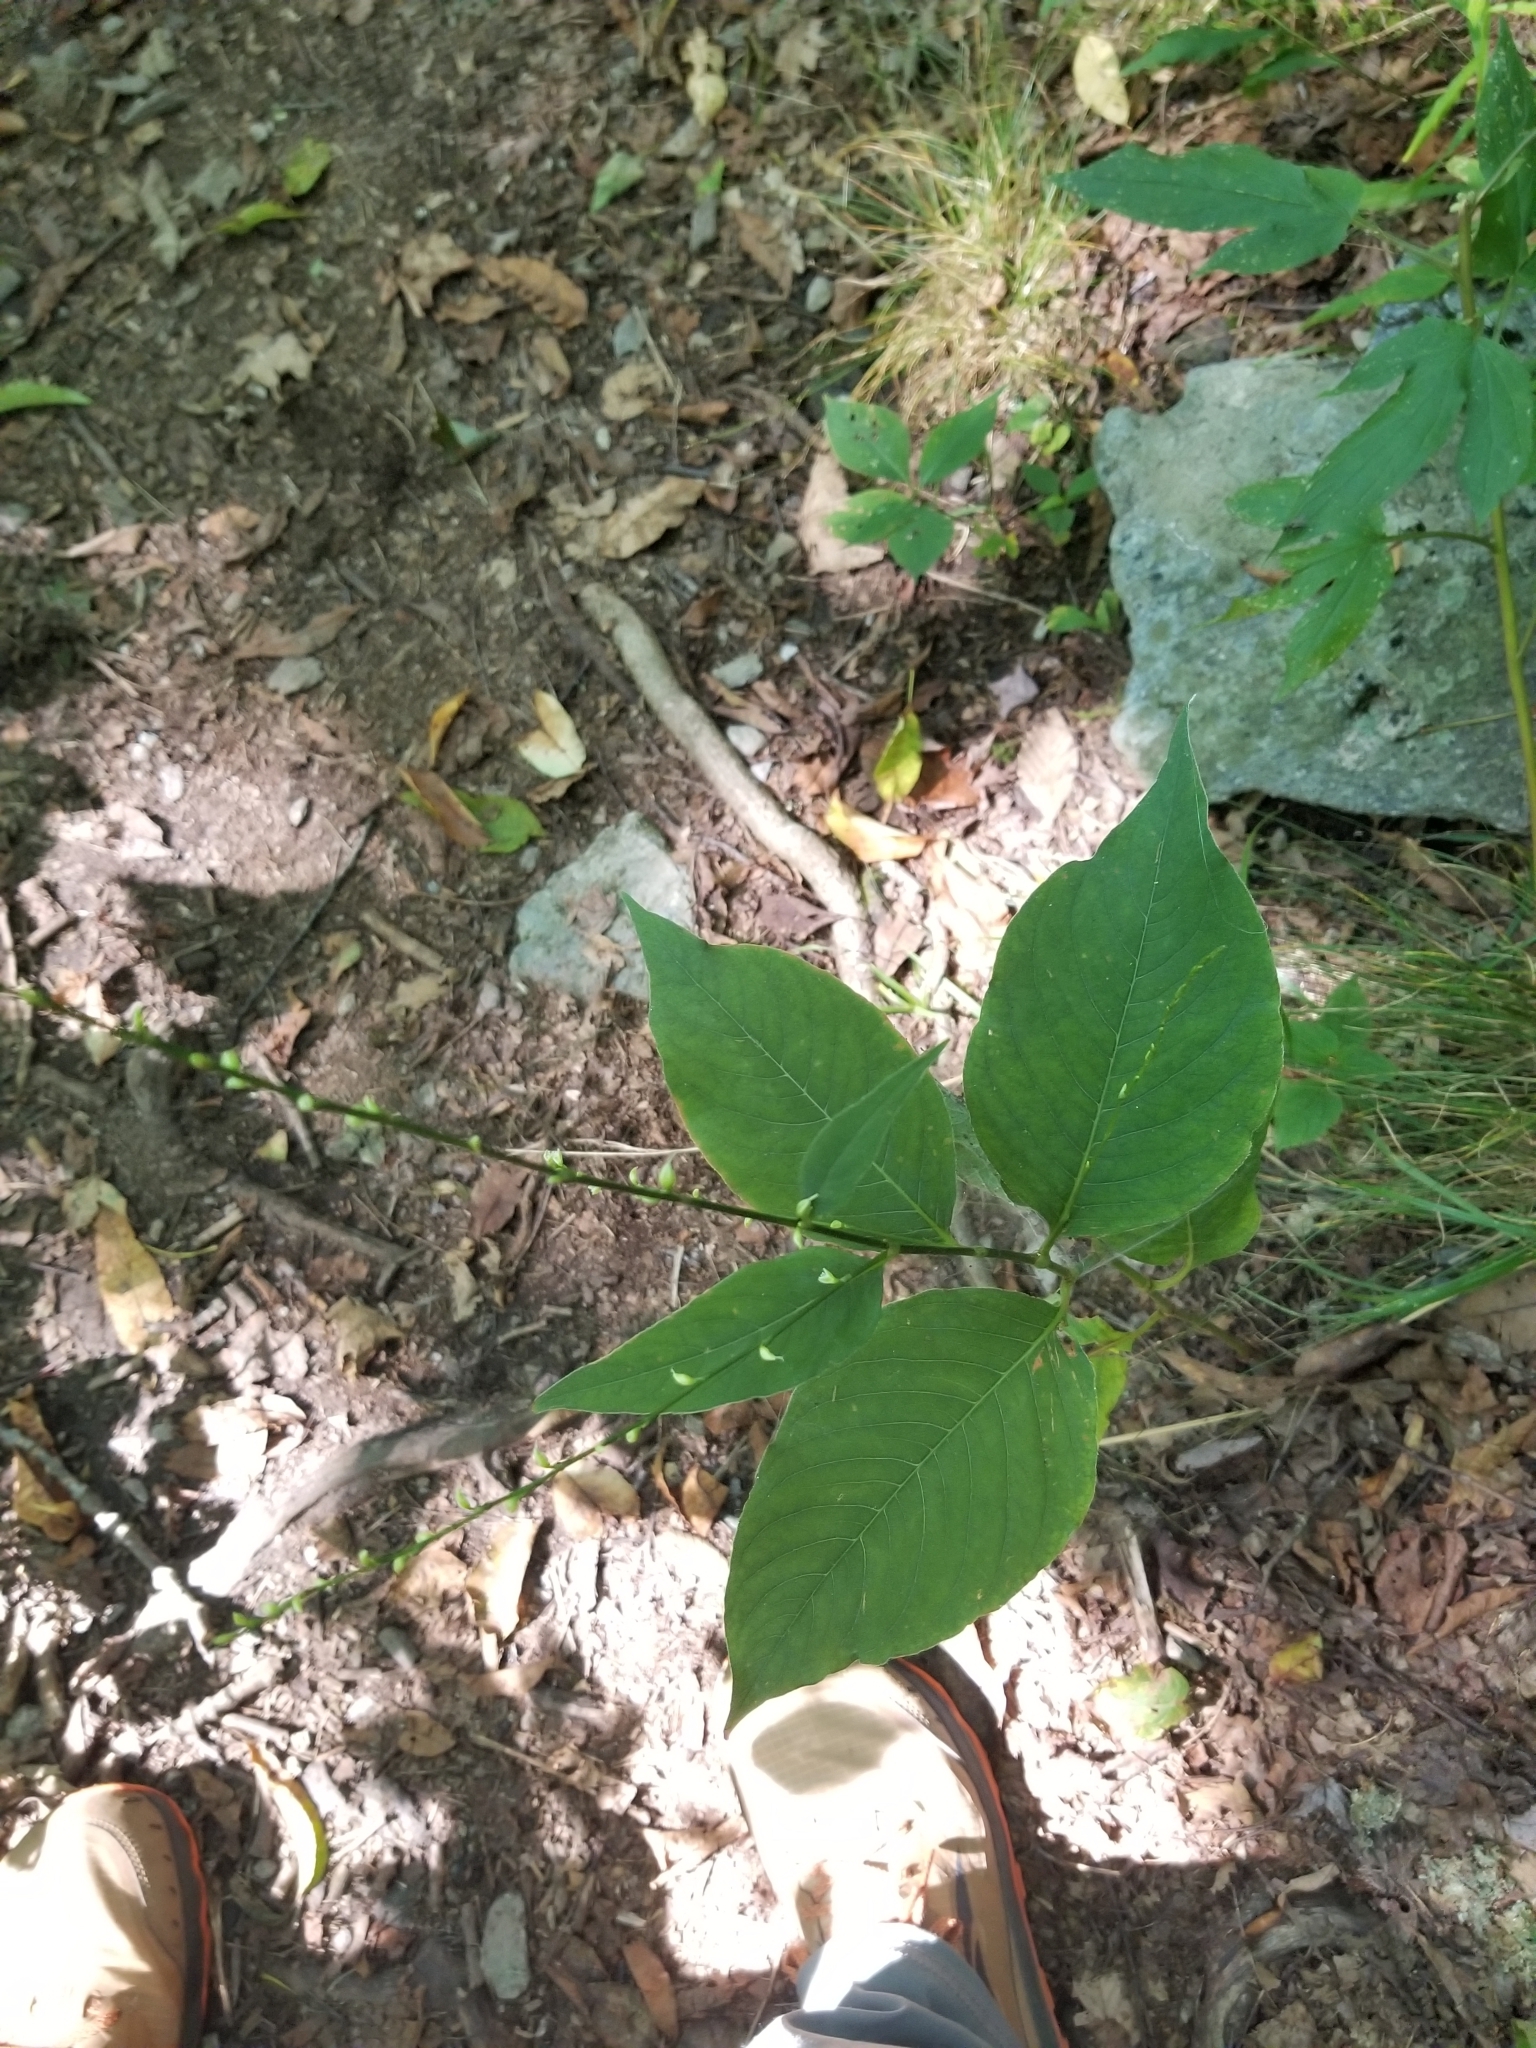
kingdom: Plantae
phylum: Tracheophyta
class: Magnoliopsida
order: Caryophyllales
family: Polygonaceae
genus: Persicaria
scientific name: Persicaria virginiana
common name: Jumpseed
